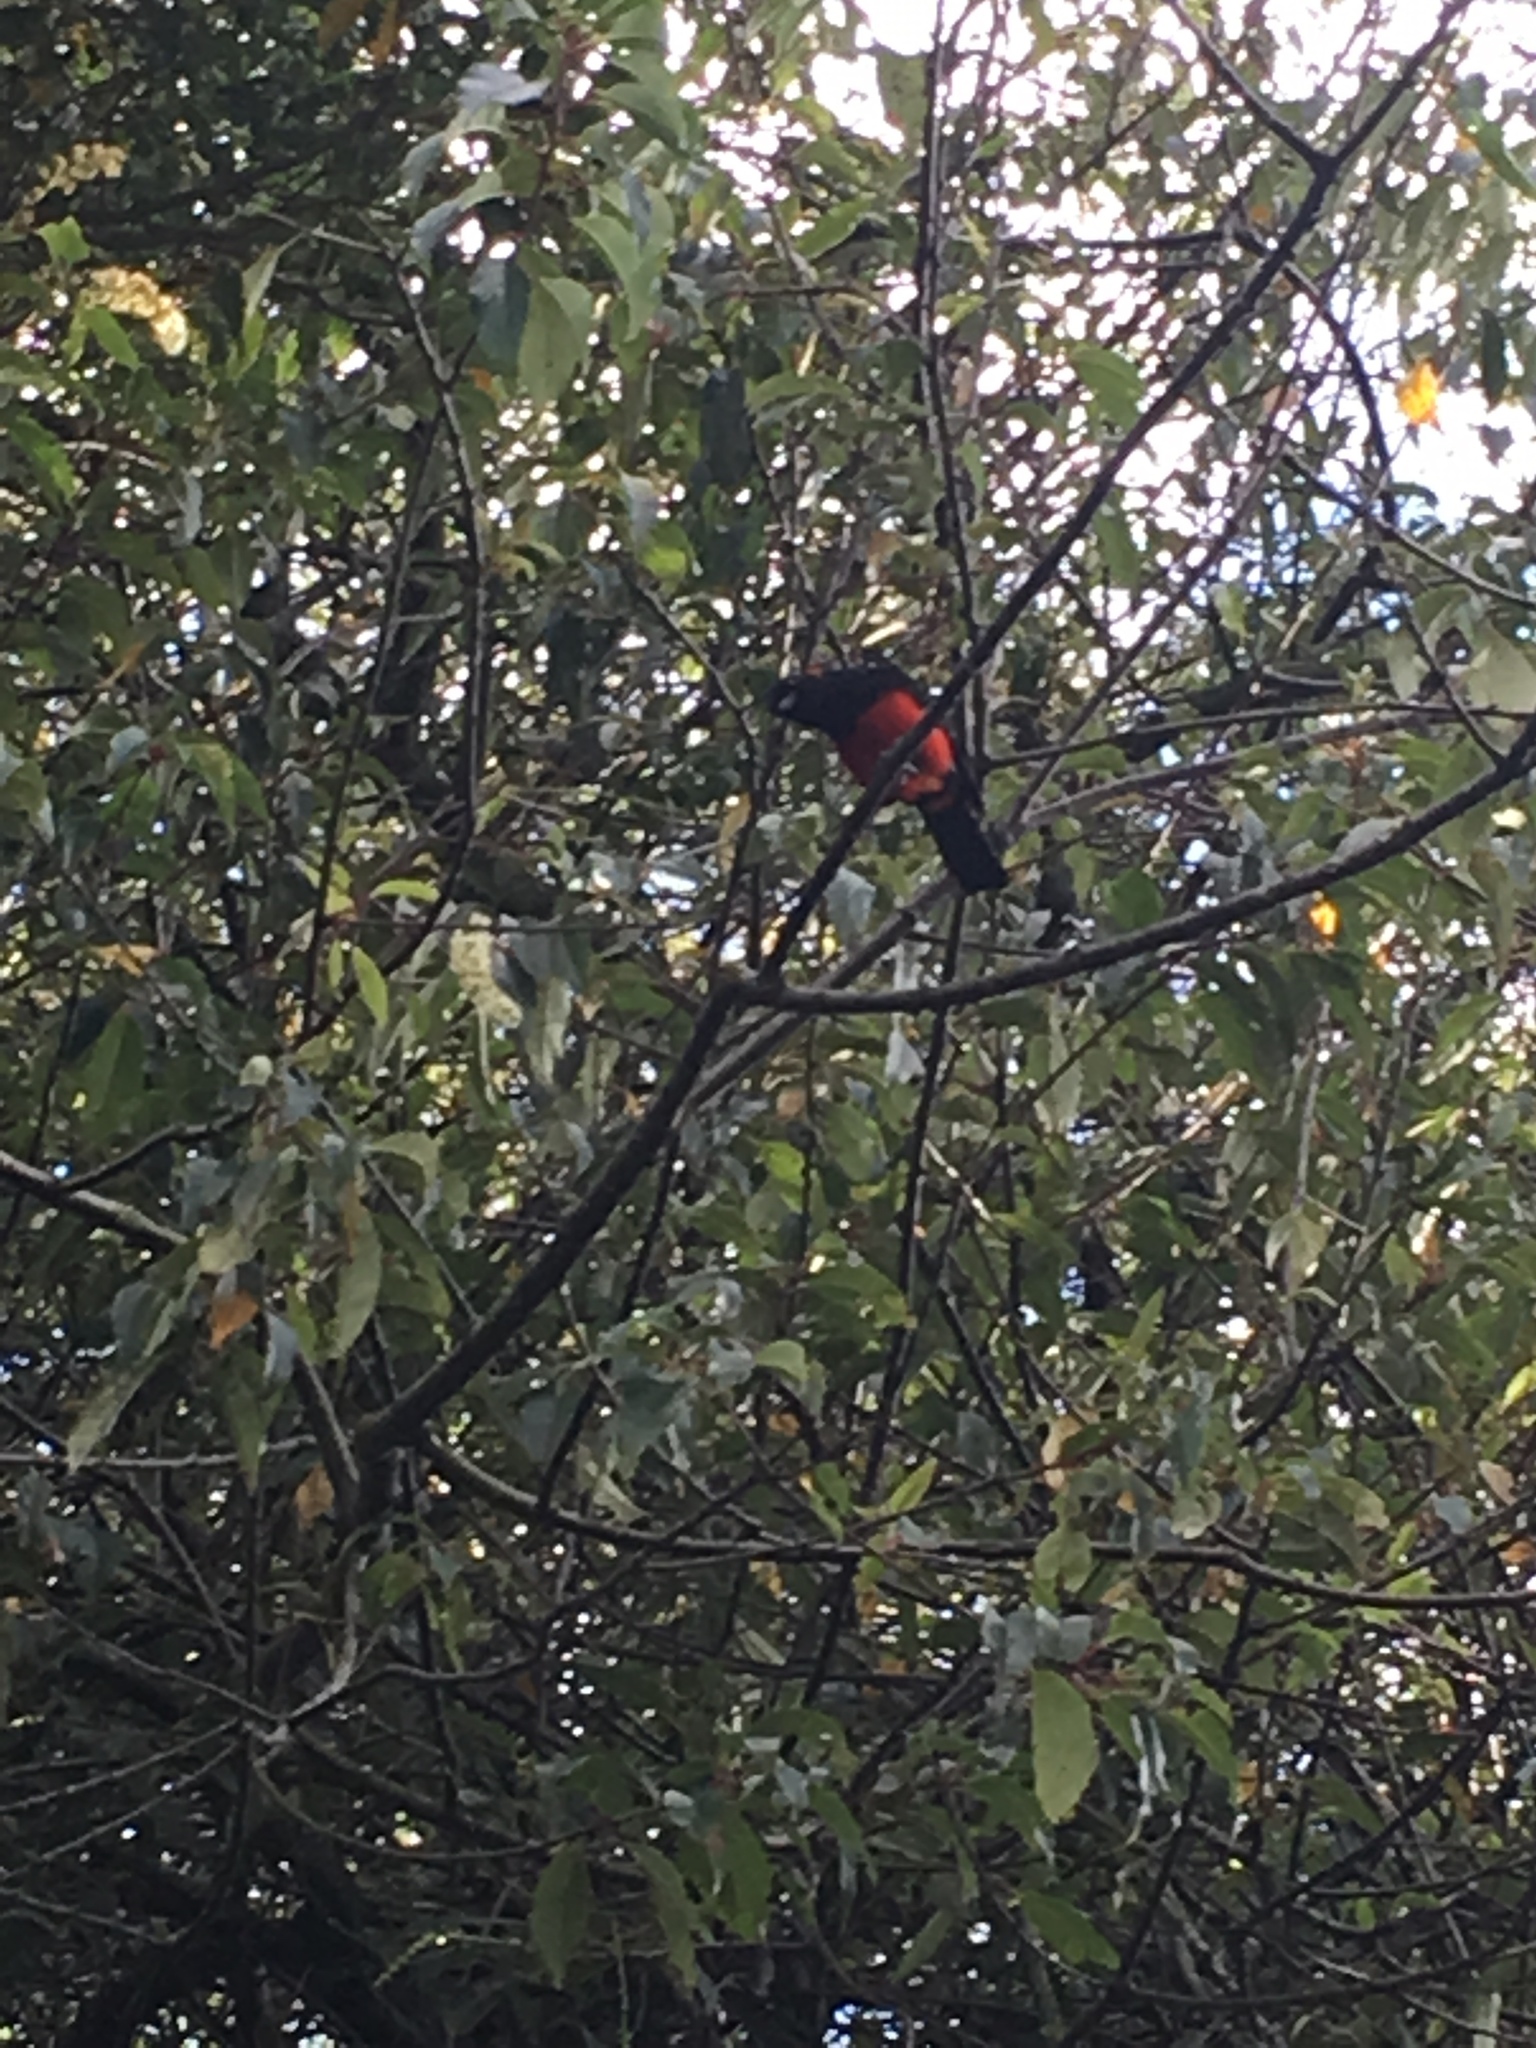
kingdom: Animalia
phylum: Chordata
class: Aves
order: Passeriformes
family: Thraupidae
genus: Anisognathus
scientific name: Anisognathus igniventris
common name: Scarlet-bellied mountain tanager
